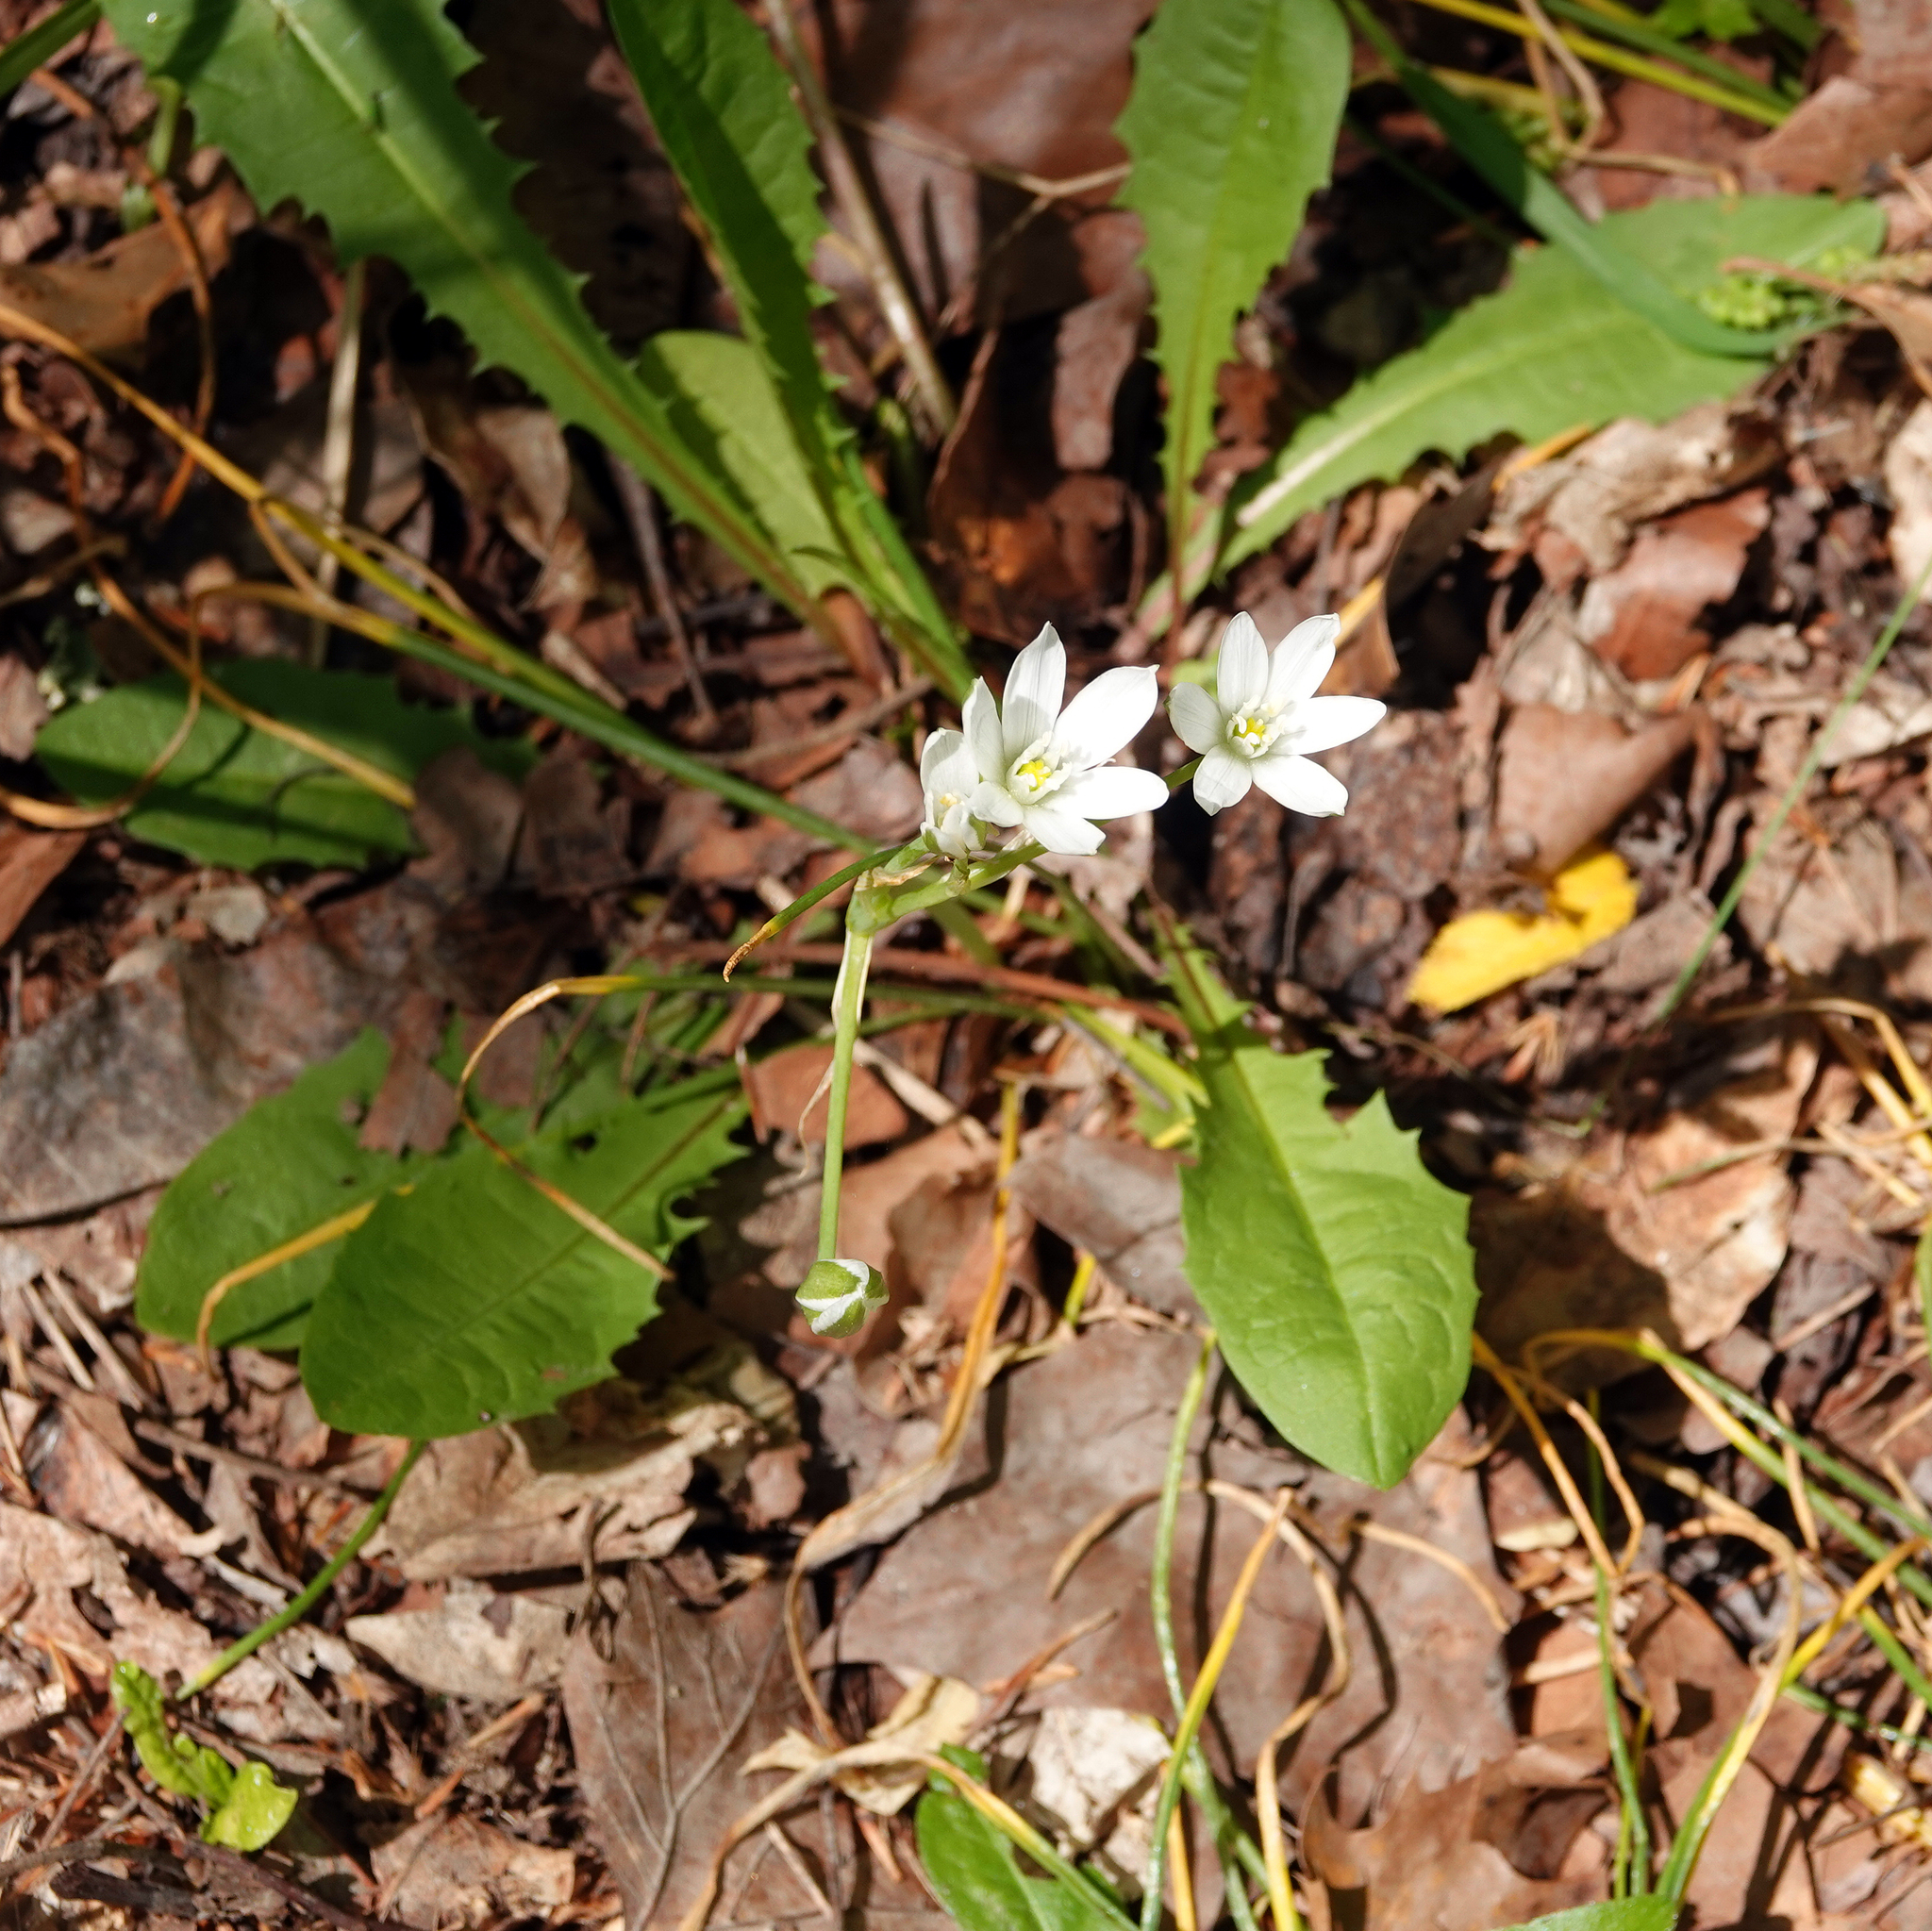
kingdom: Plantae
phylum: Tracheophyta
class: Liliopsida
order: Asparagales
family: Asparagaceae
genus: Ornithogalum
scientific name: Ornithogalum umbellatum
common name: Garden star-of-bethlehem
